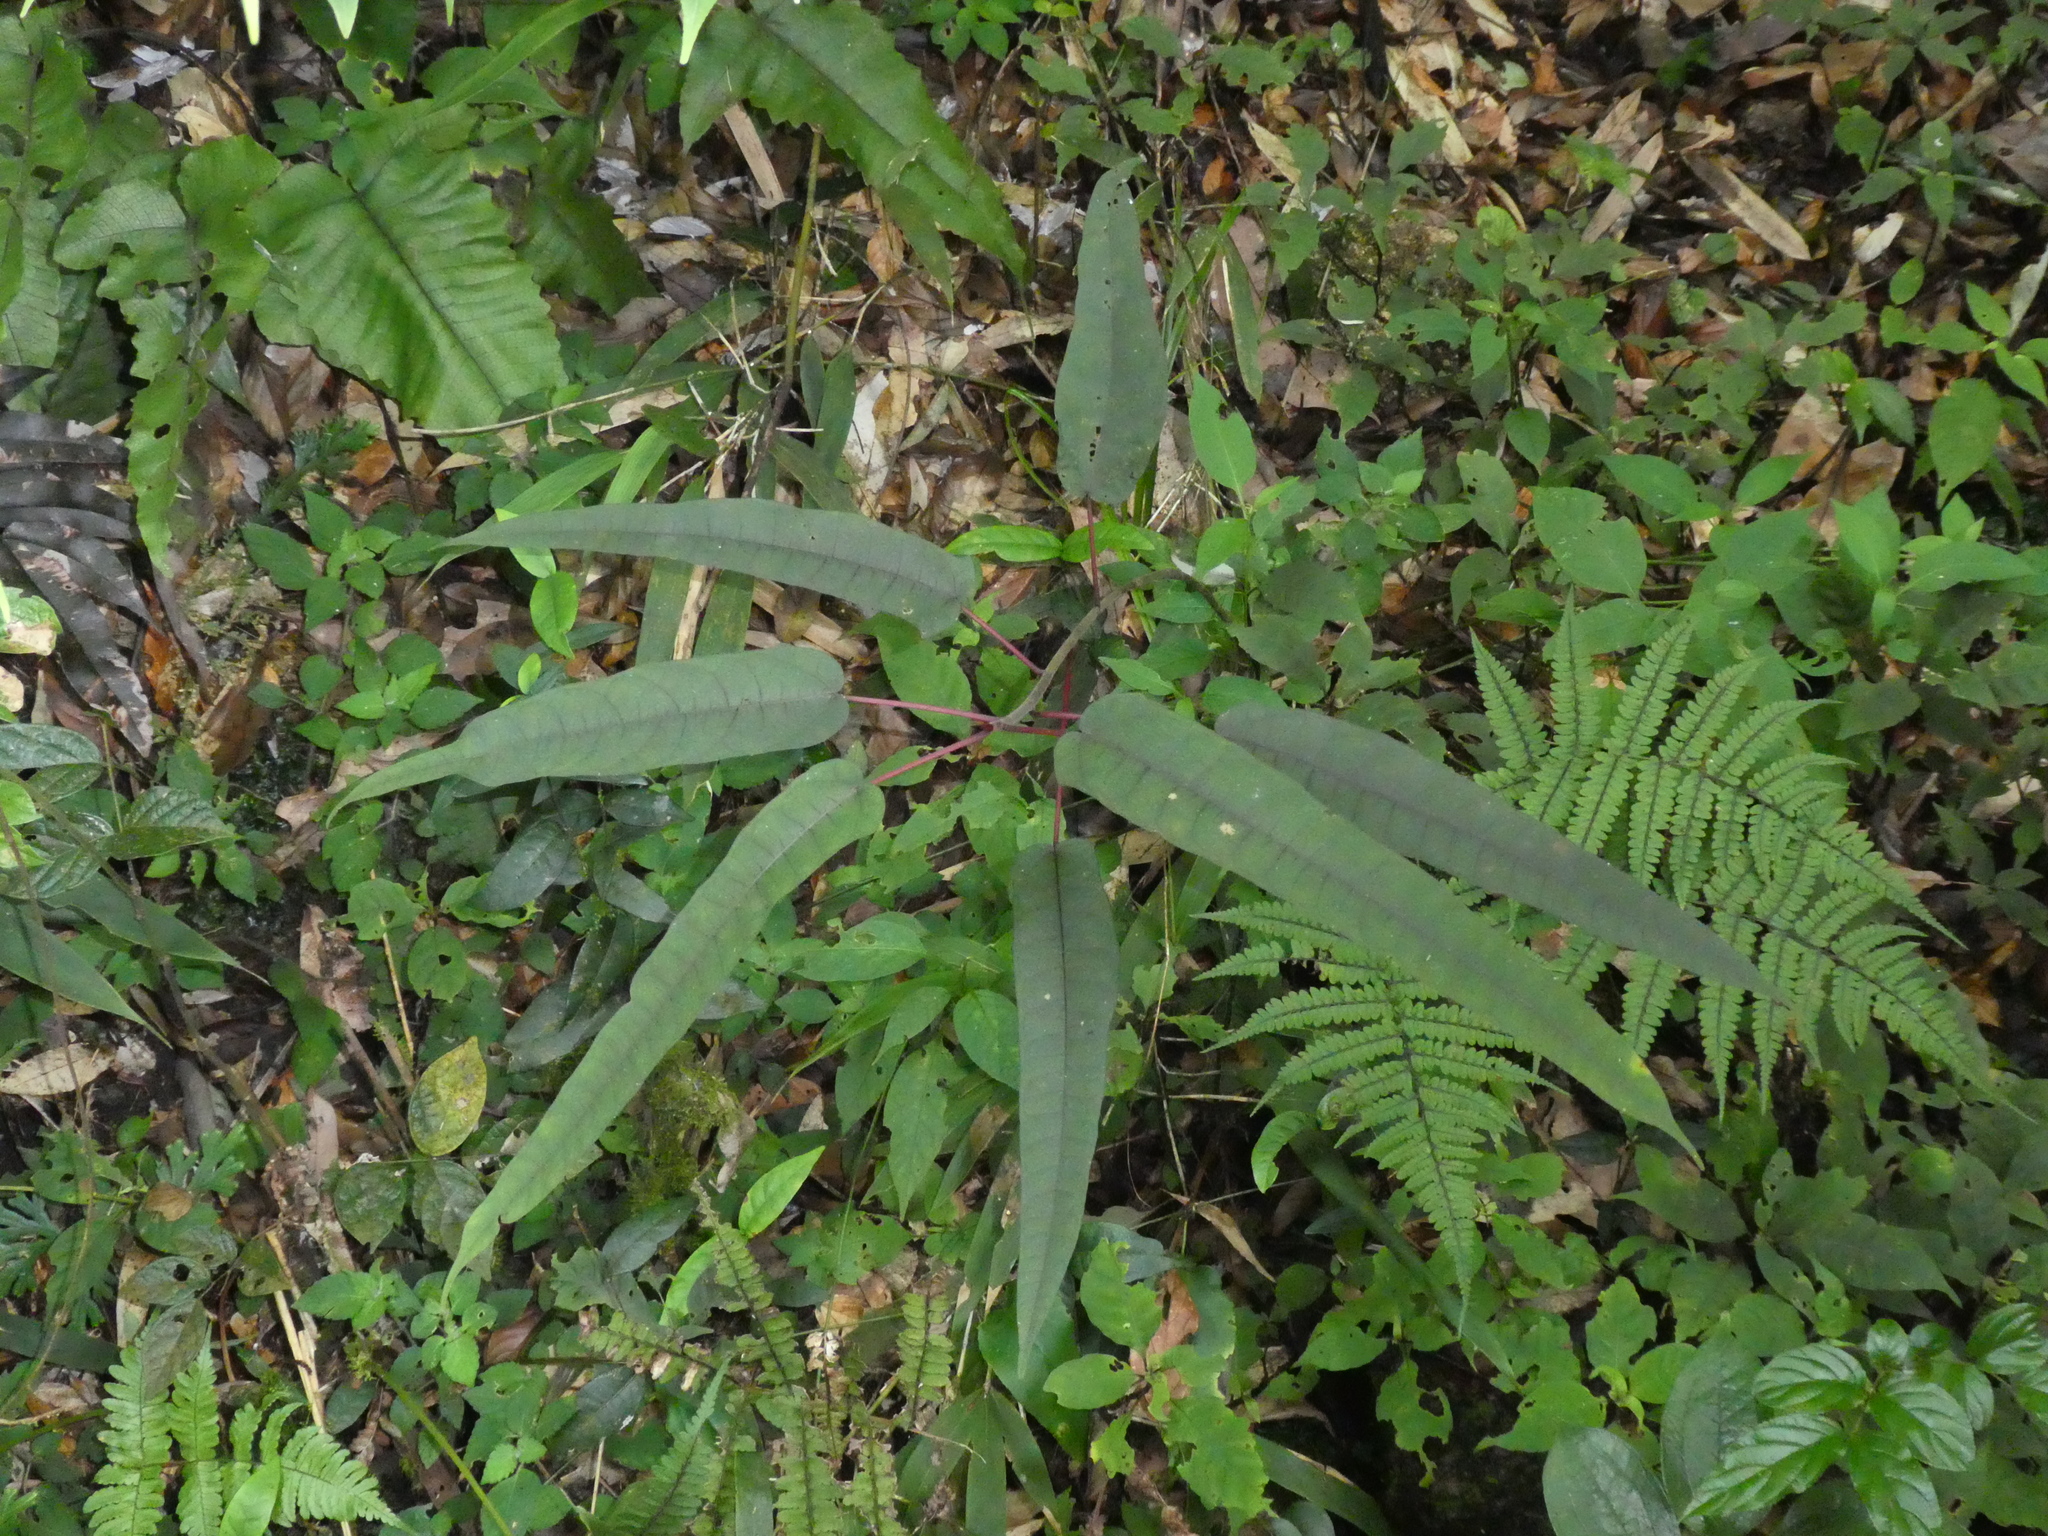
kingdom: Plantae
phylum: Tracheophyta
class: Magnoliopsida
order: Rosales
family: Moraceae
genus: Ficus
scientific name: Ficus heteromorpha
